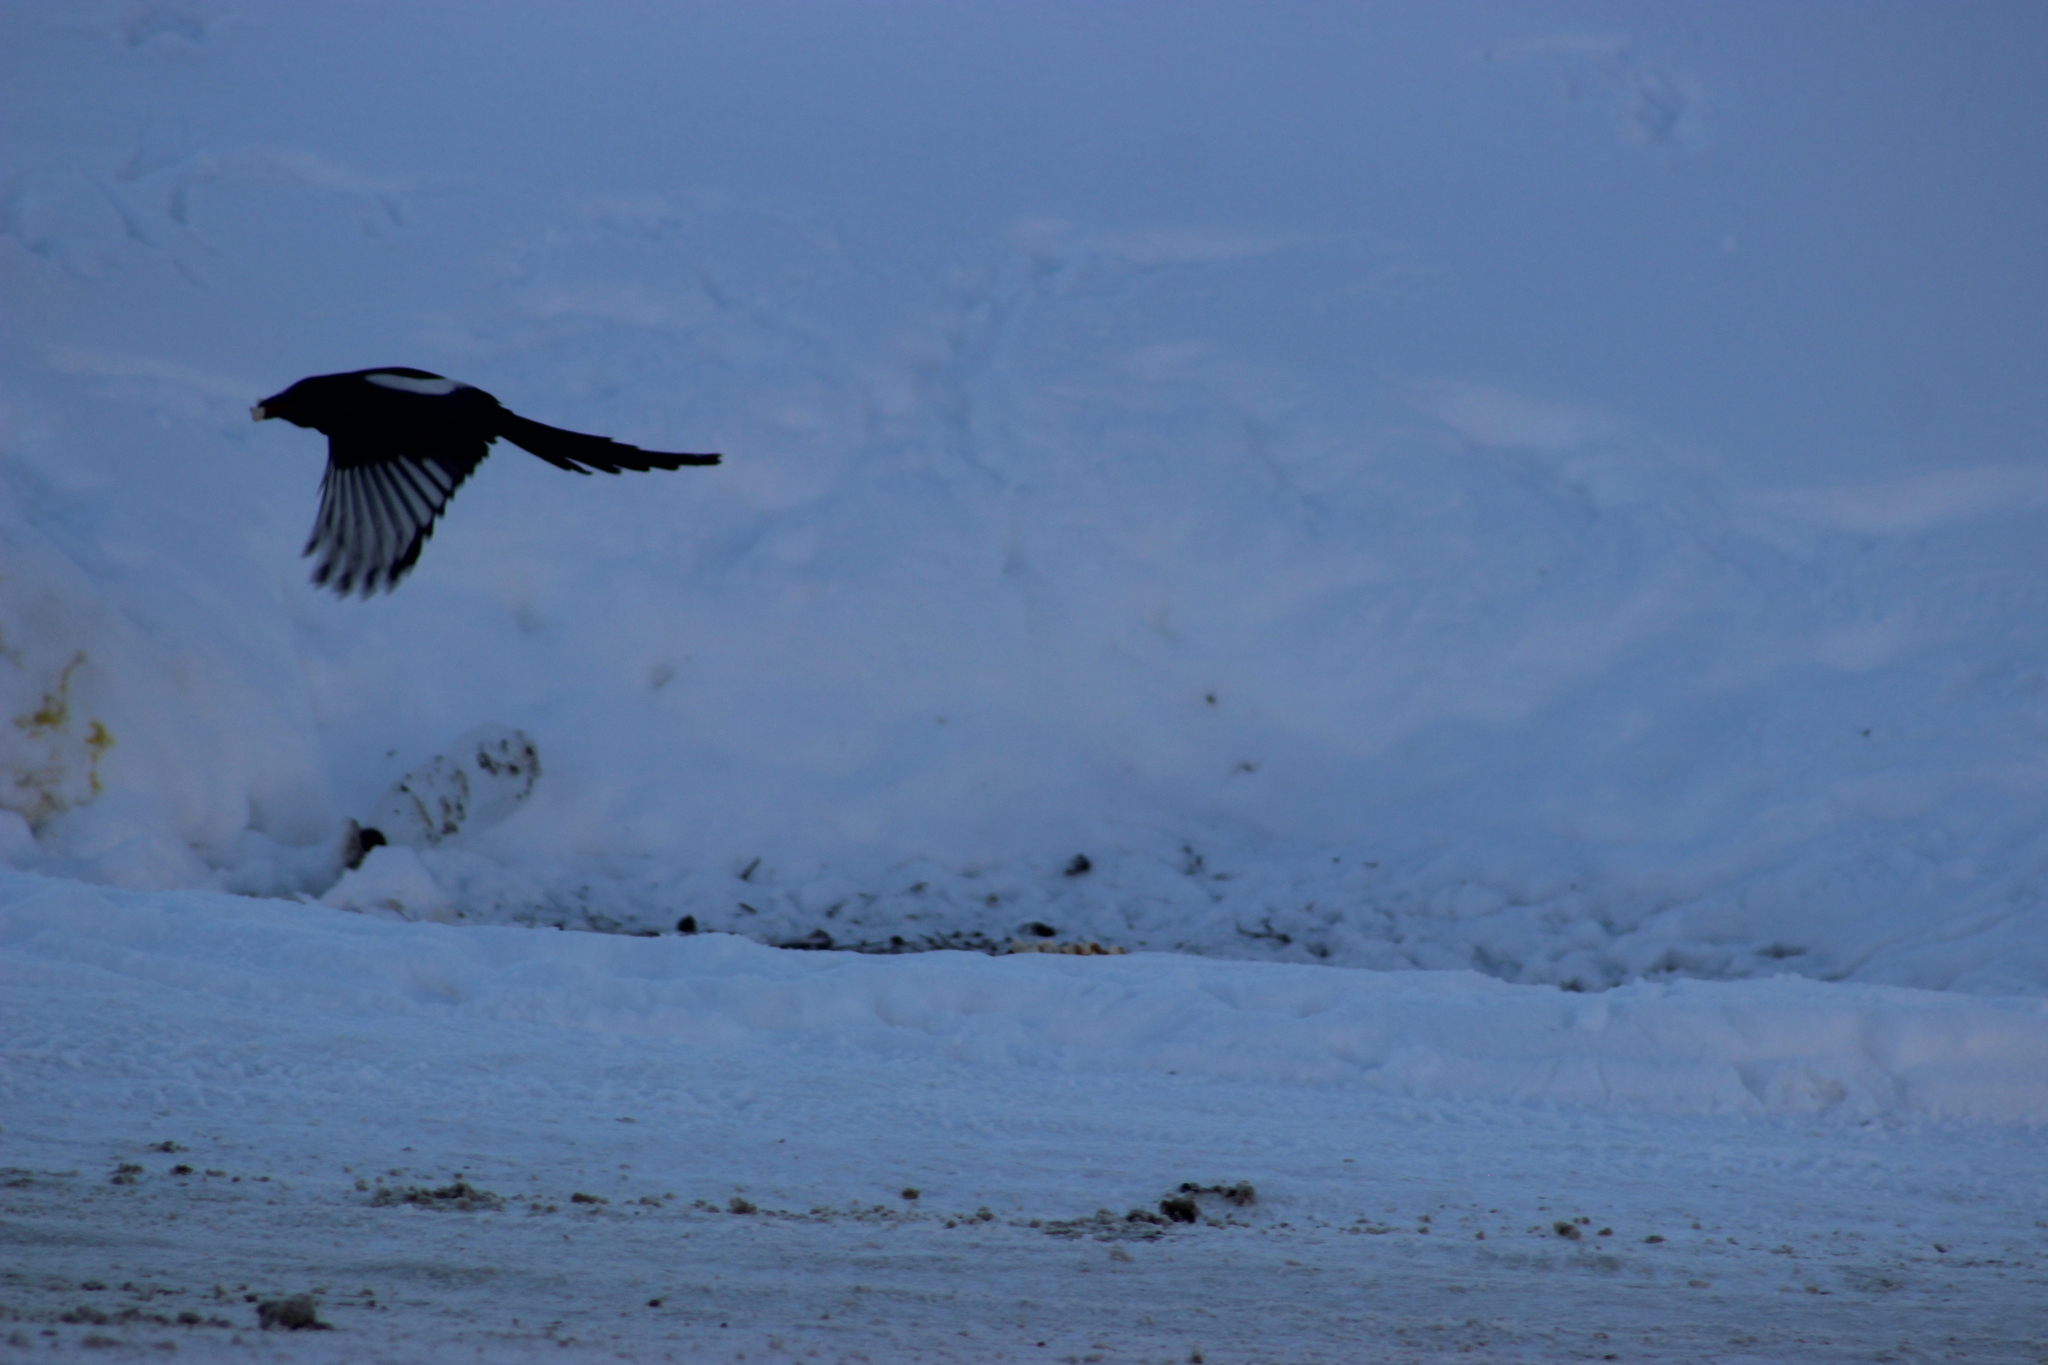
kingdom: Animalia
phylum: Chordata
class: Aves
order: Passeriformes
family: Corvidae
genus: Pica
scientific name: Pica pica
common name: Eurasian magpie
